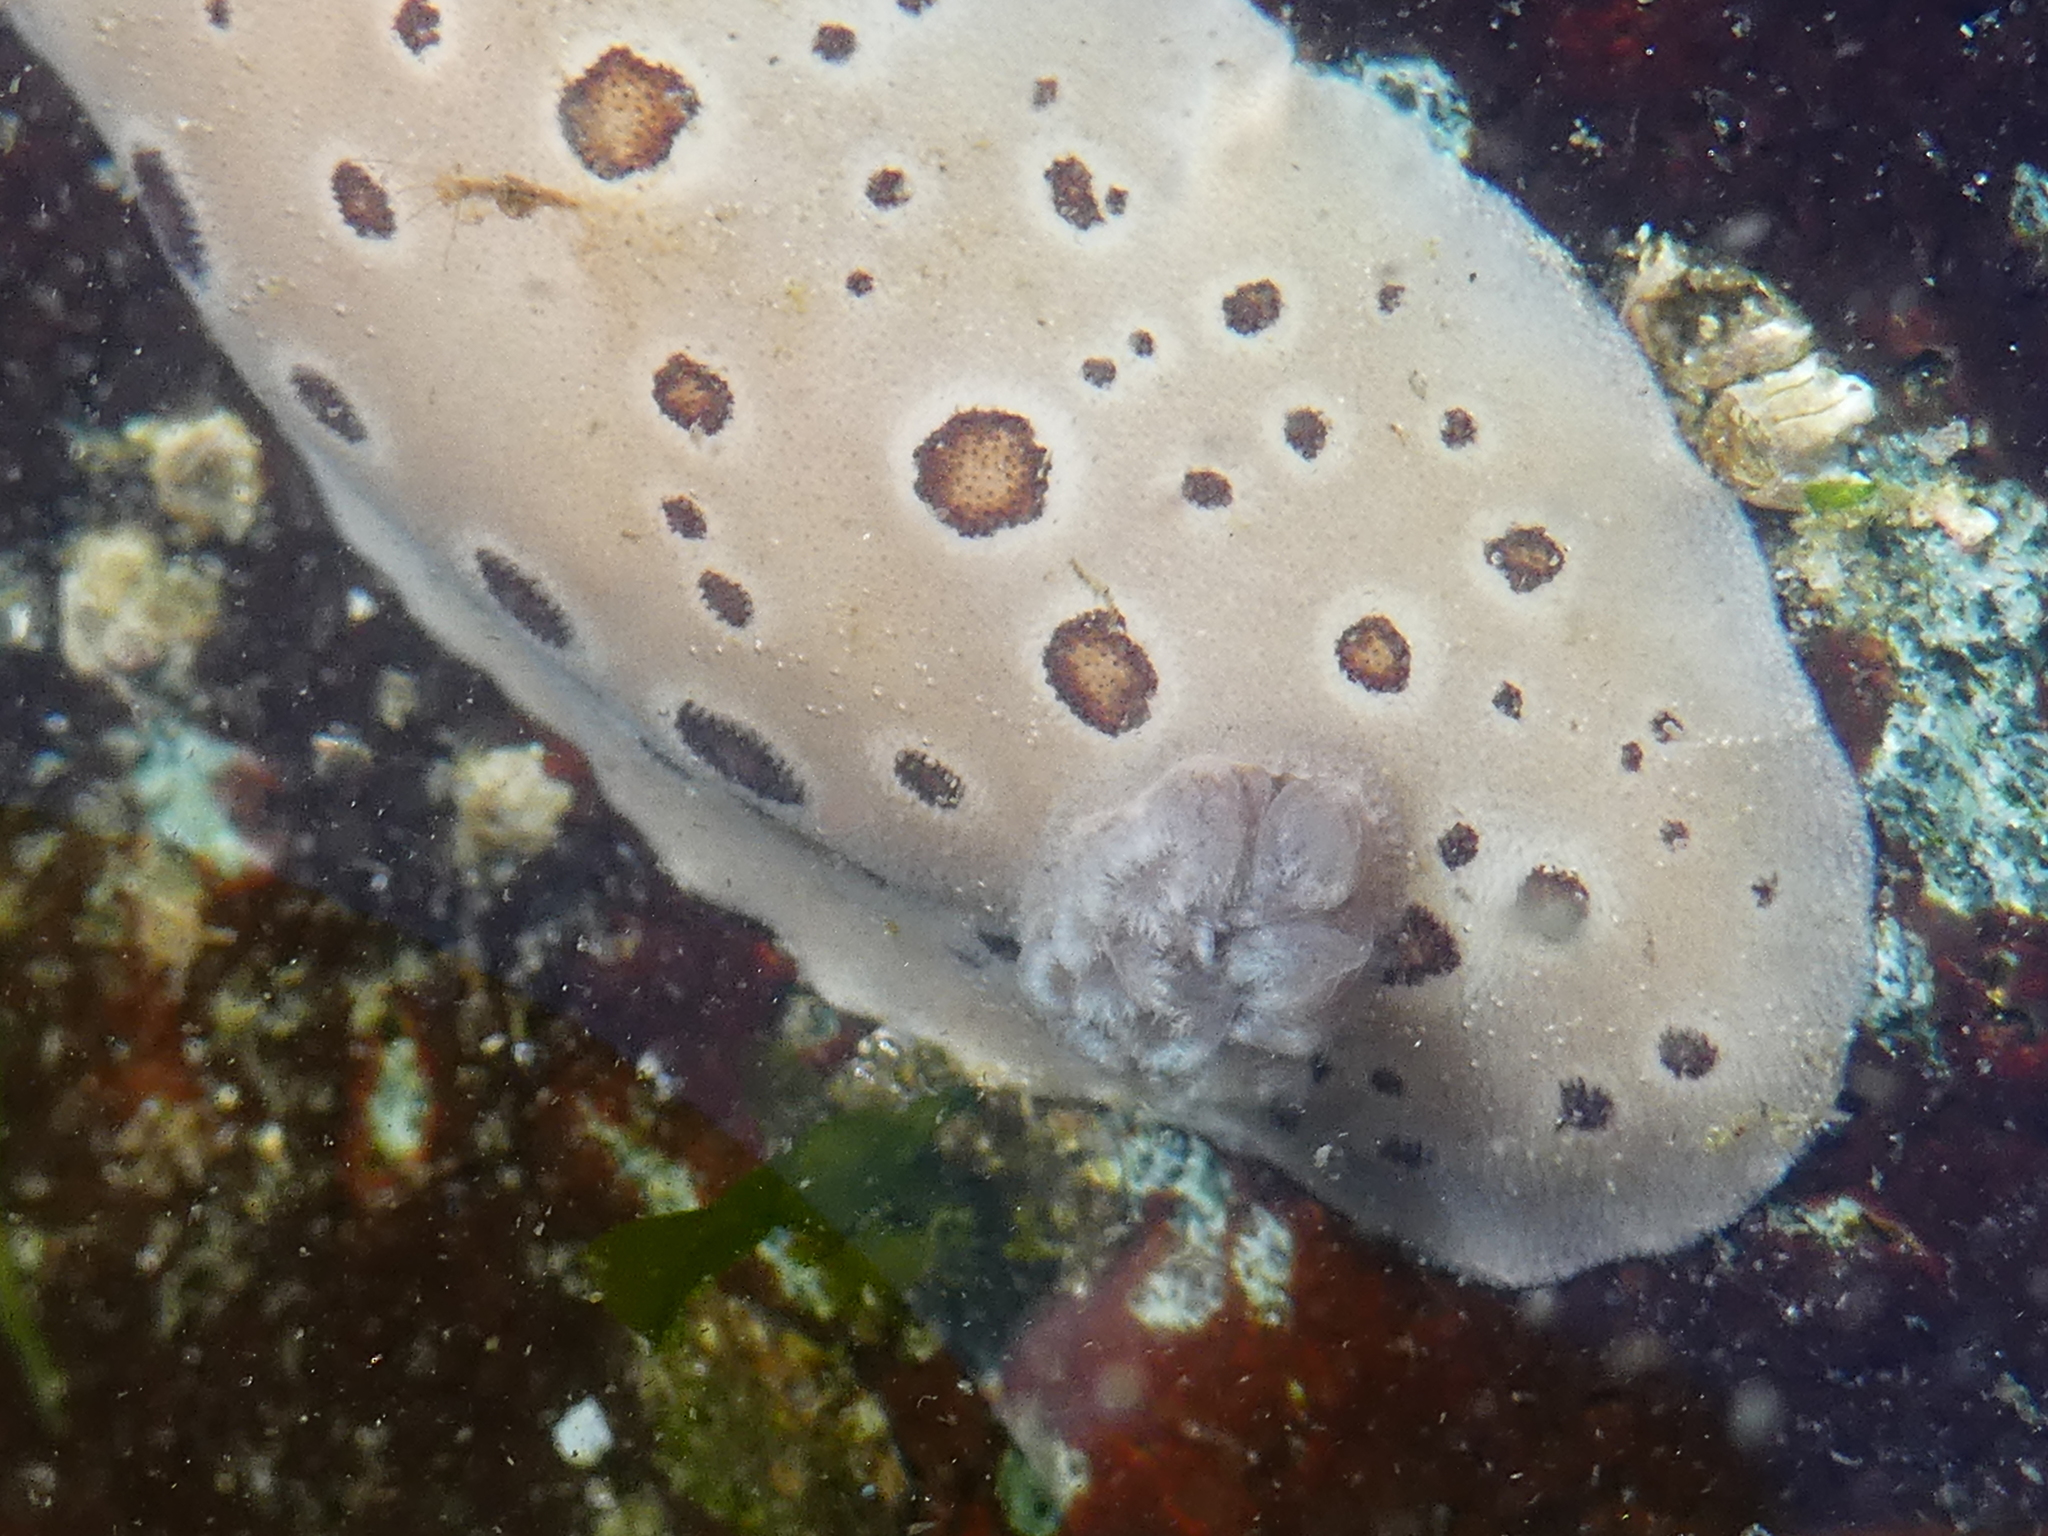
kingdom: Animalia
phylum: Mollusca
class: Gastropoda
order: Nudibranchia
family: Discodorididae
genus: Diaulula
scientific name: Diaulula odonoghuei
